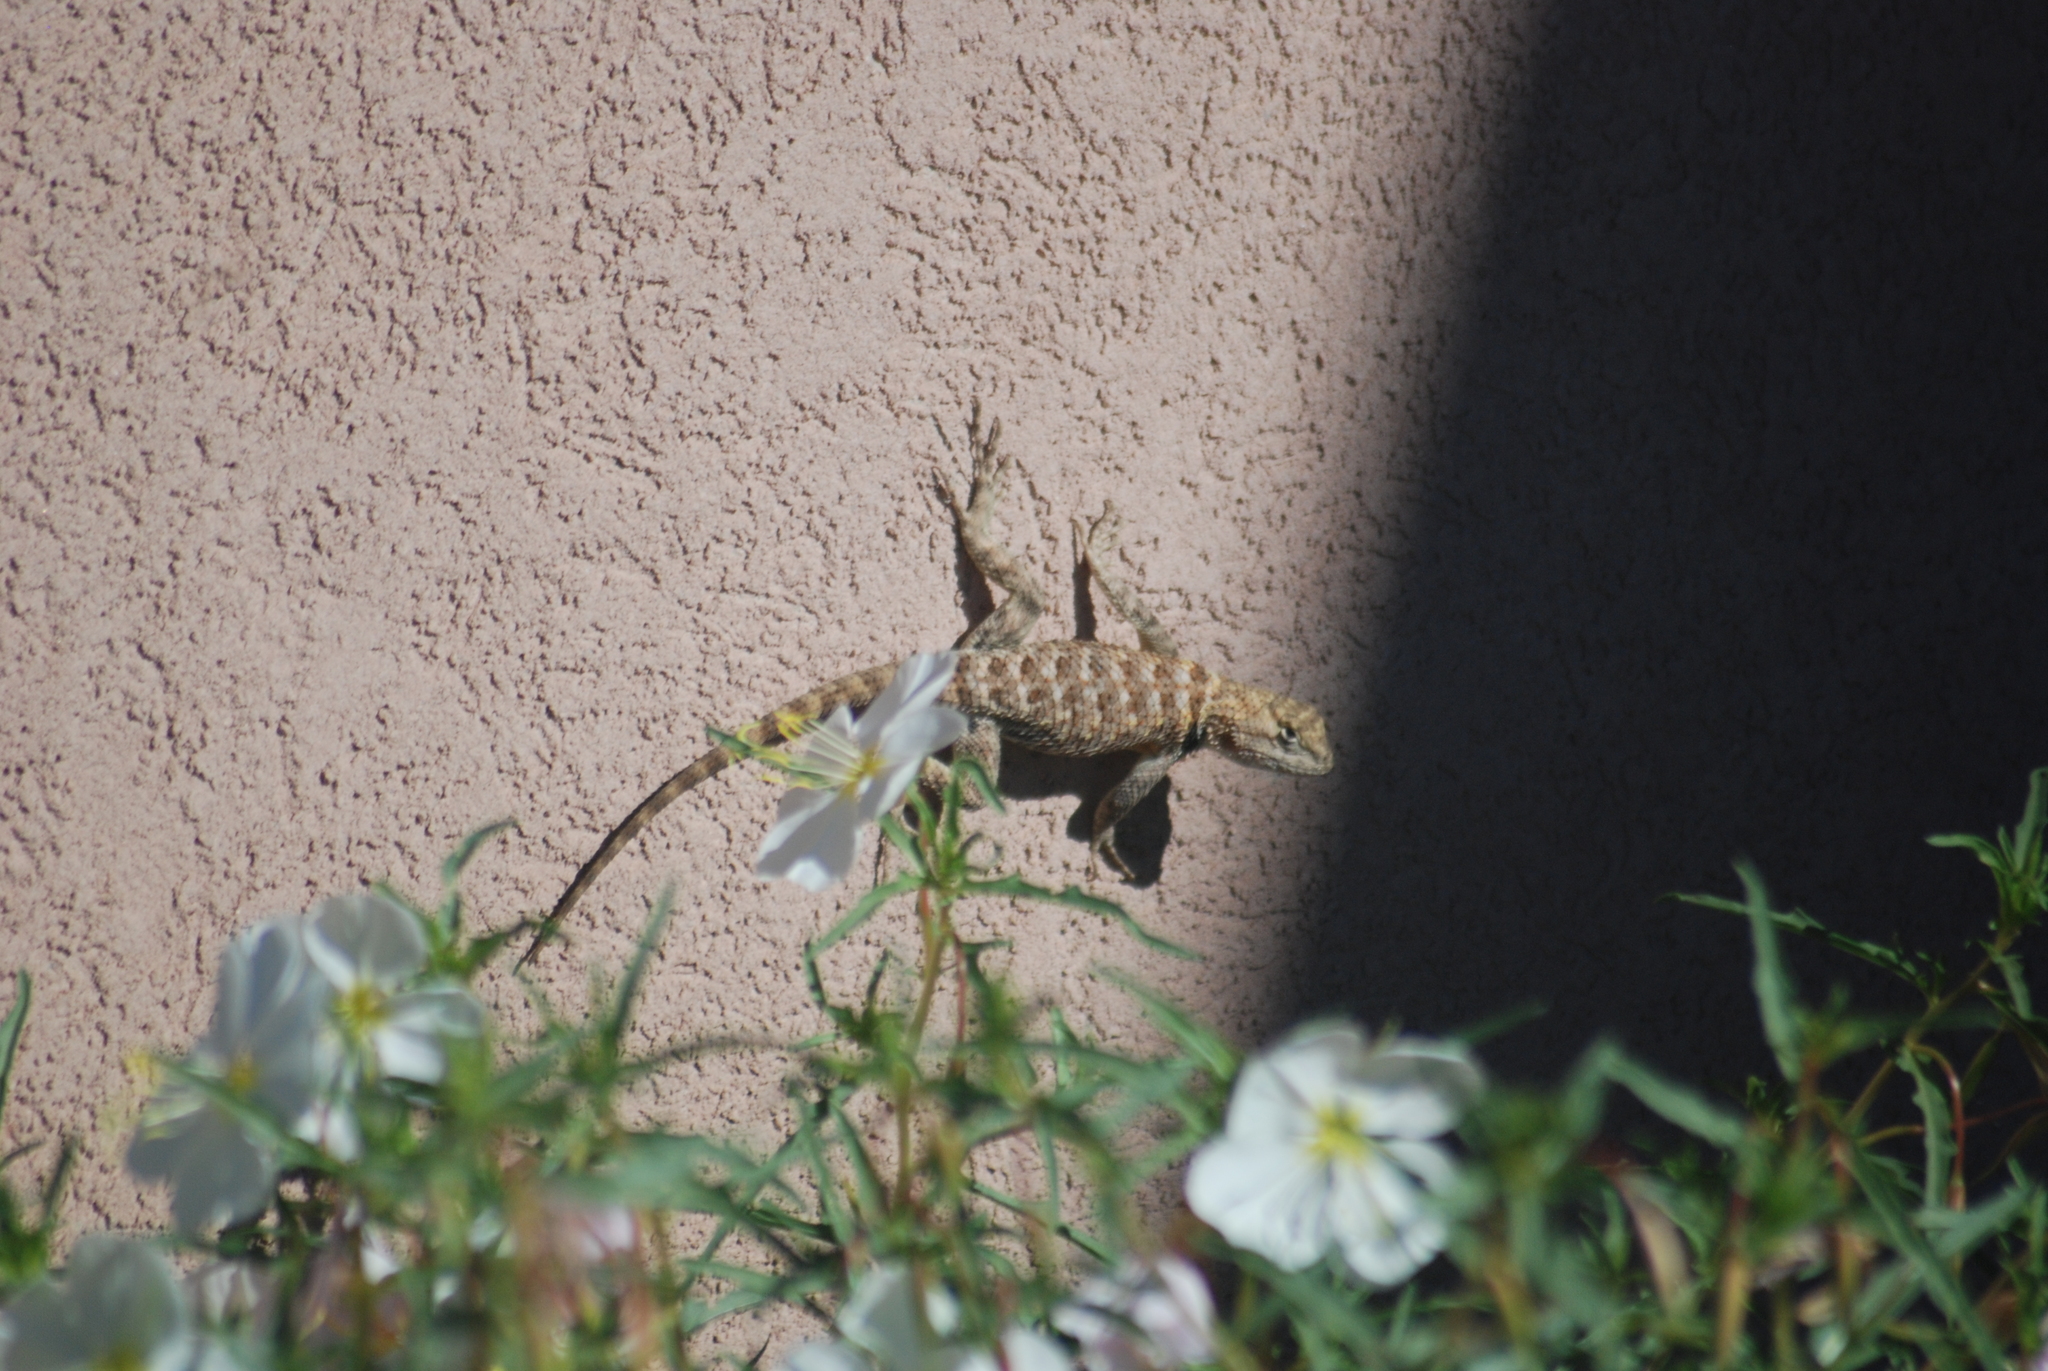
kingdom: Animalia
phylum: Chordata
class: Squamata
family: Phrynosomatidae
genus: Sceloporus
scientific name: Sceloporus magister
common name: Desert spiny lizard
